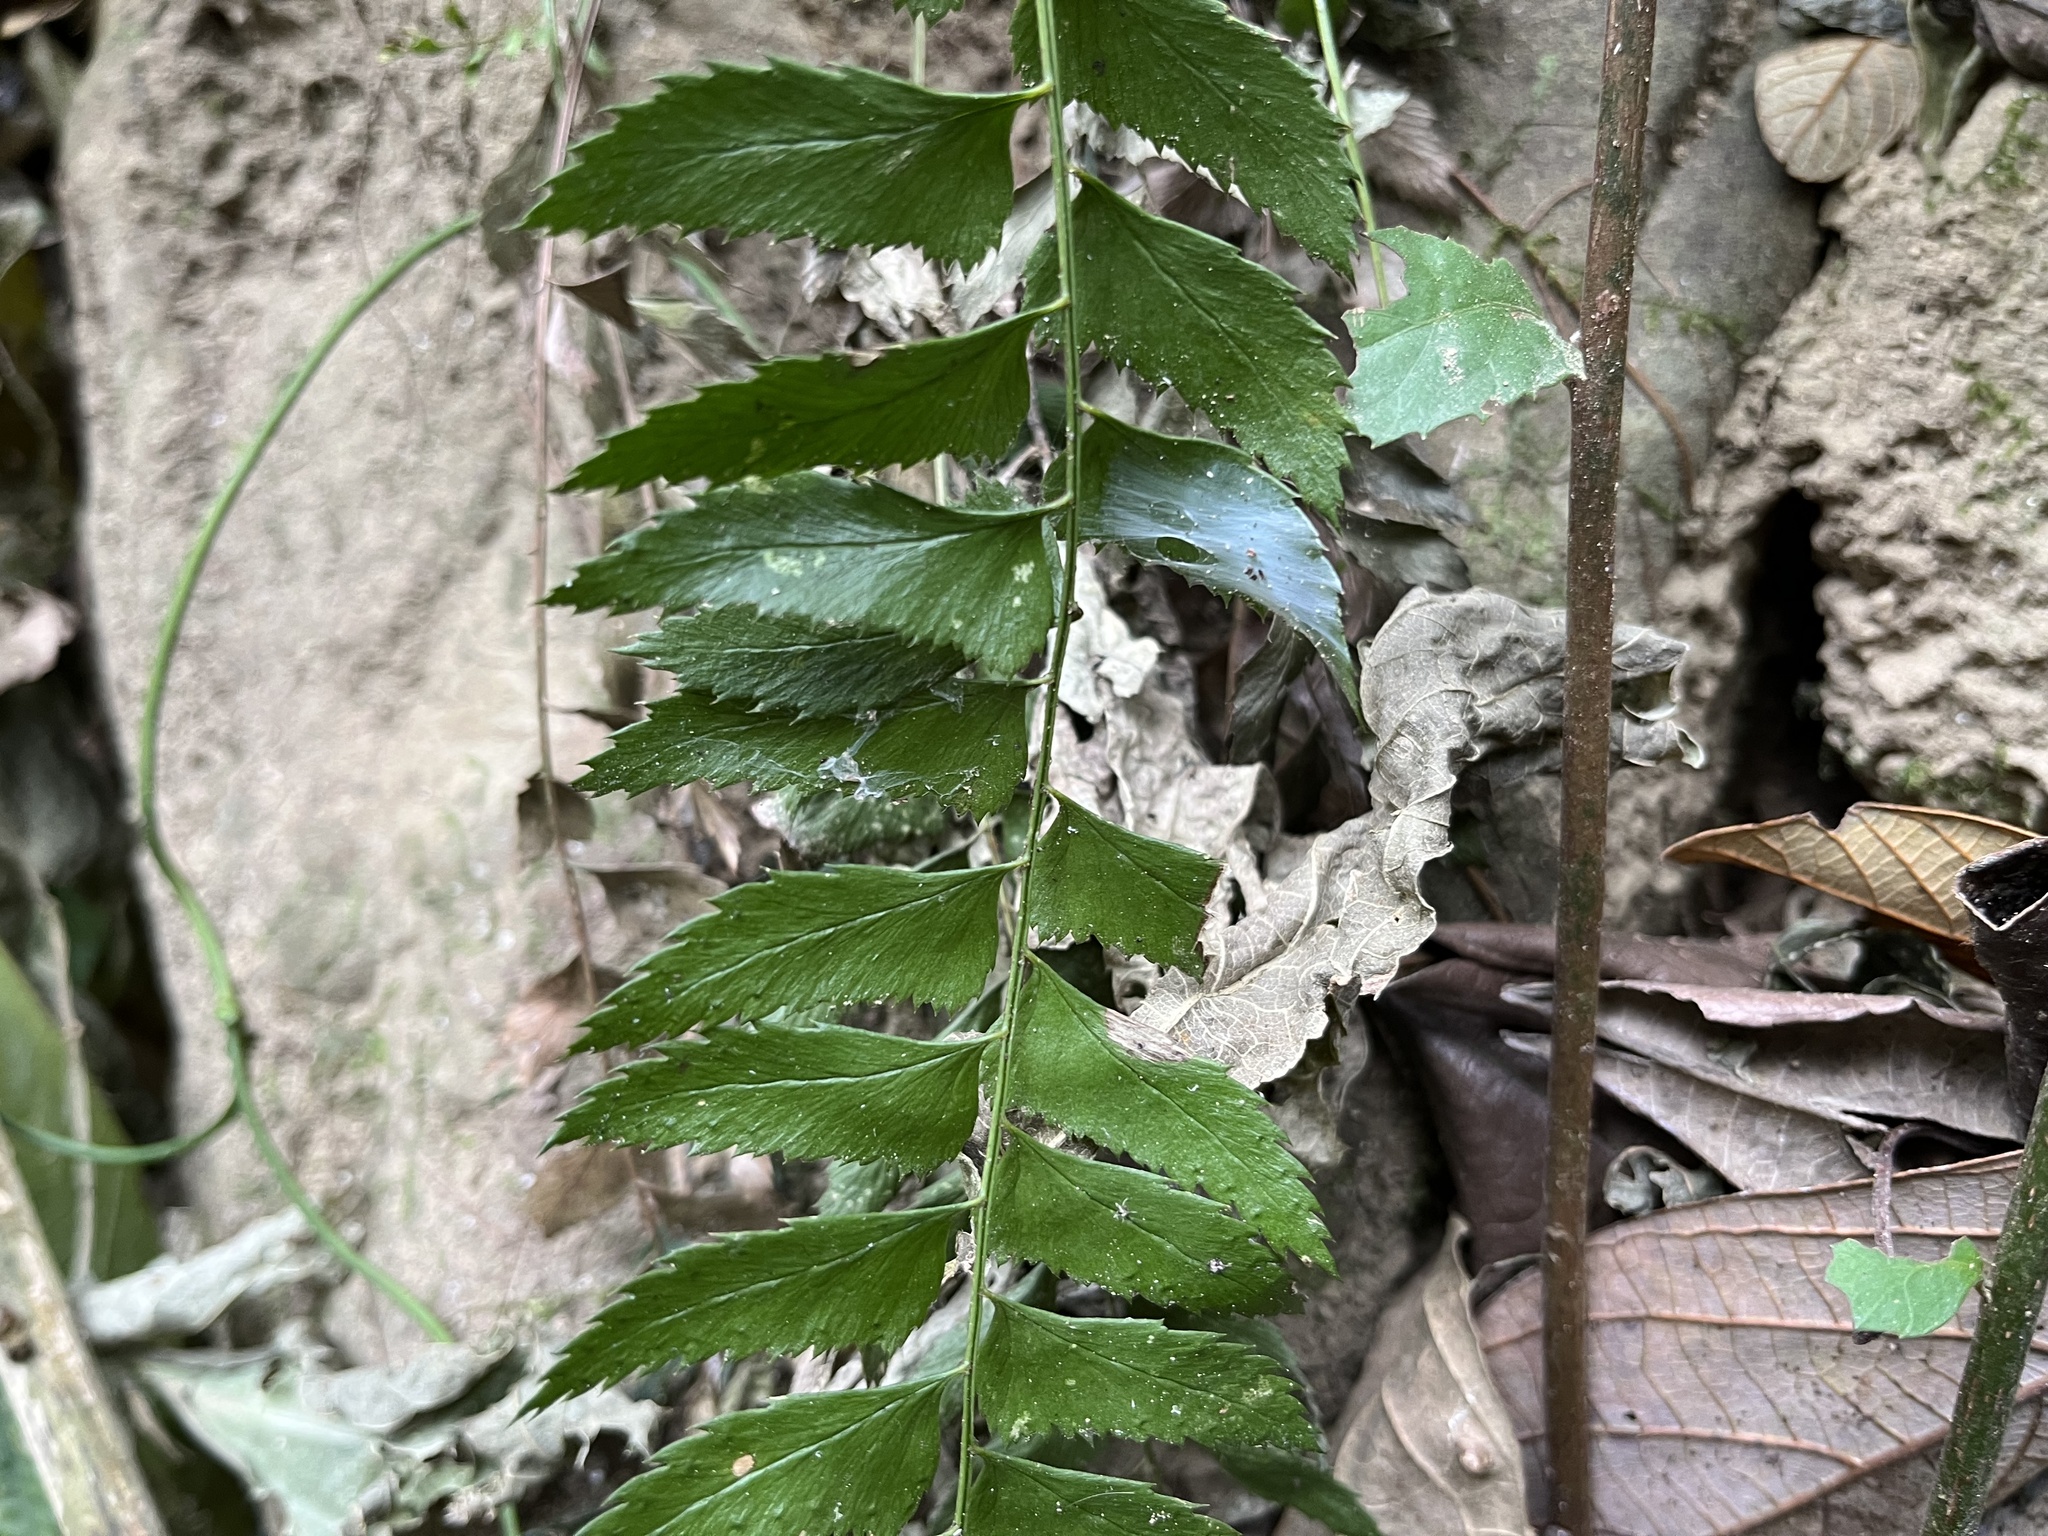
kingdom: Plantae
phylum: Tracheophyta
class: Polypodiopsida
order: Polypodiales
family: Dryopteridaceae
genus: Polystichum
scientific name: Polystichum formosanum
